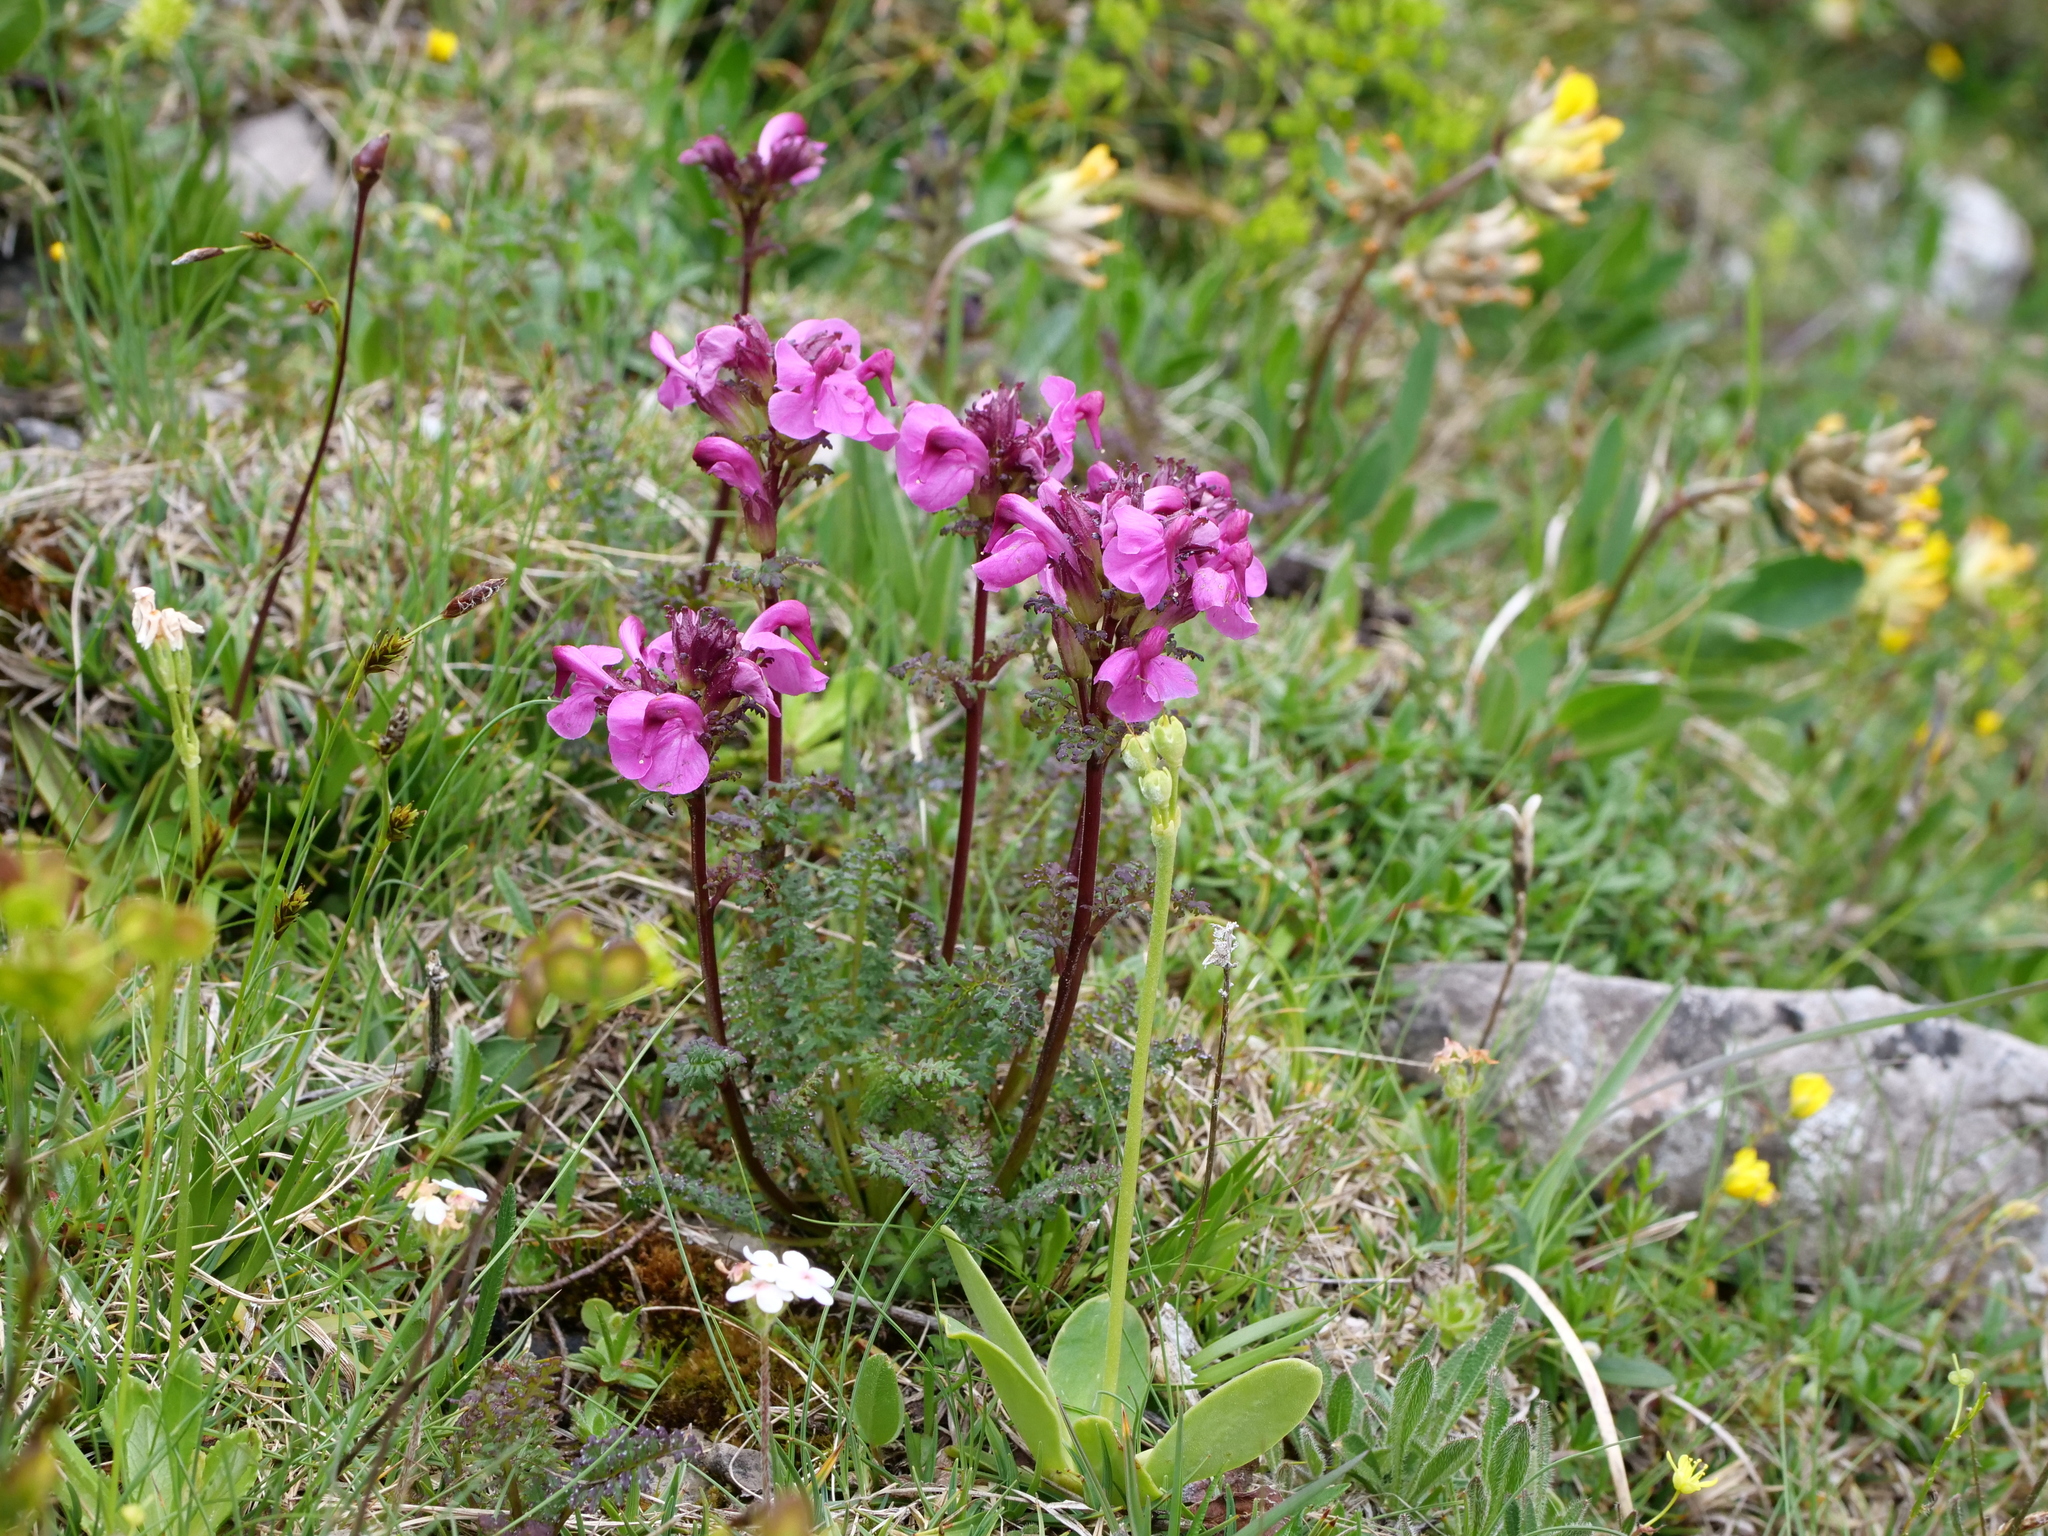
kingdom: Plantae
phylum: Tracheophyta
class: Magnoliopsida
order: Lamiales
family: Orobanchaceae
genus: Pedicularis
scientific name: Pedicularis rostratocapitata
